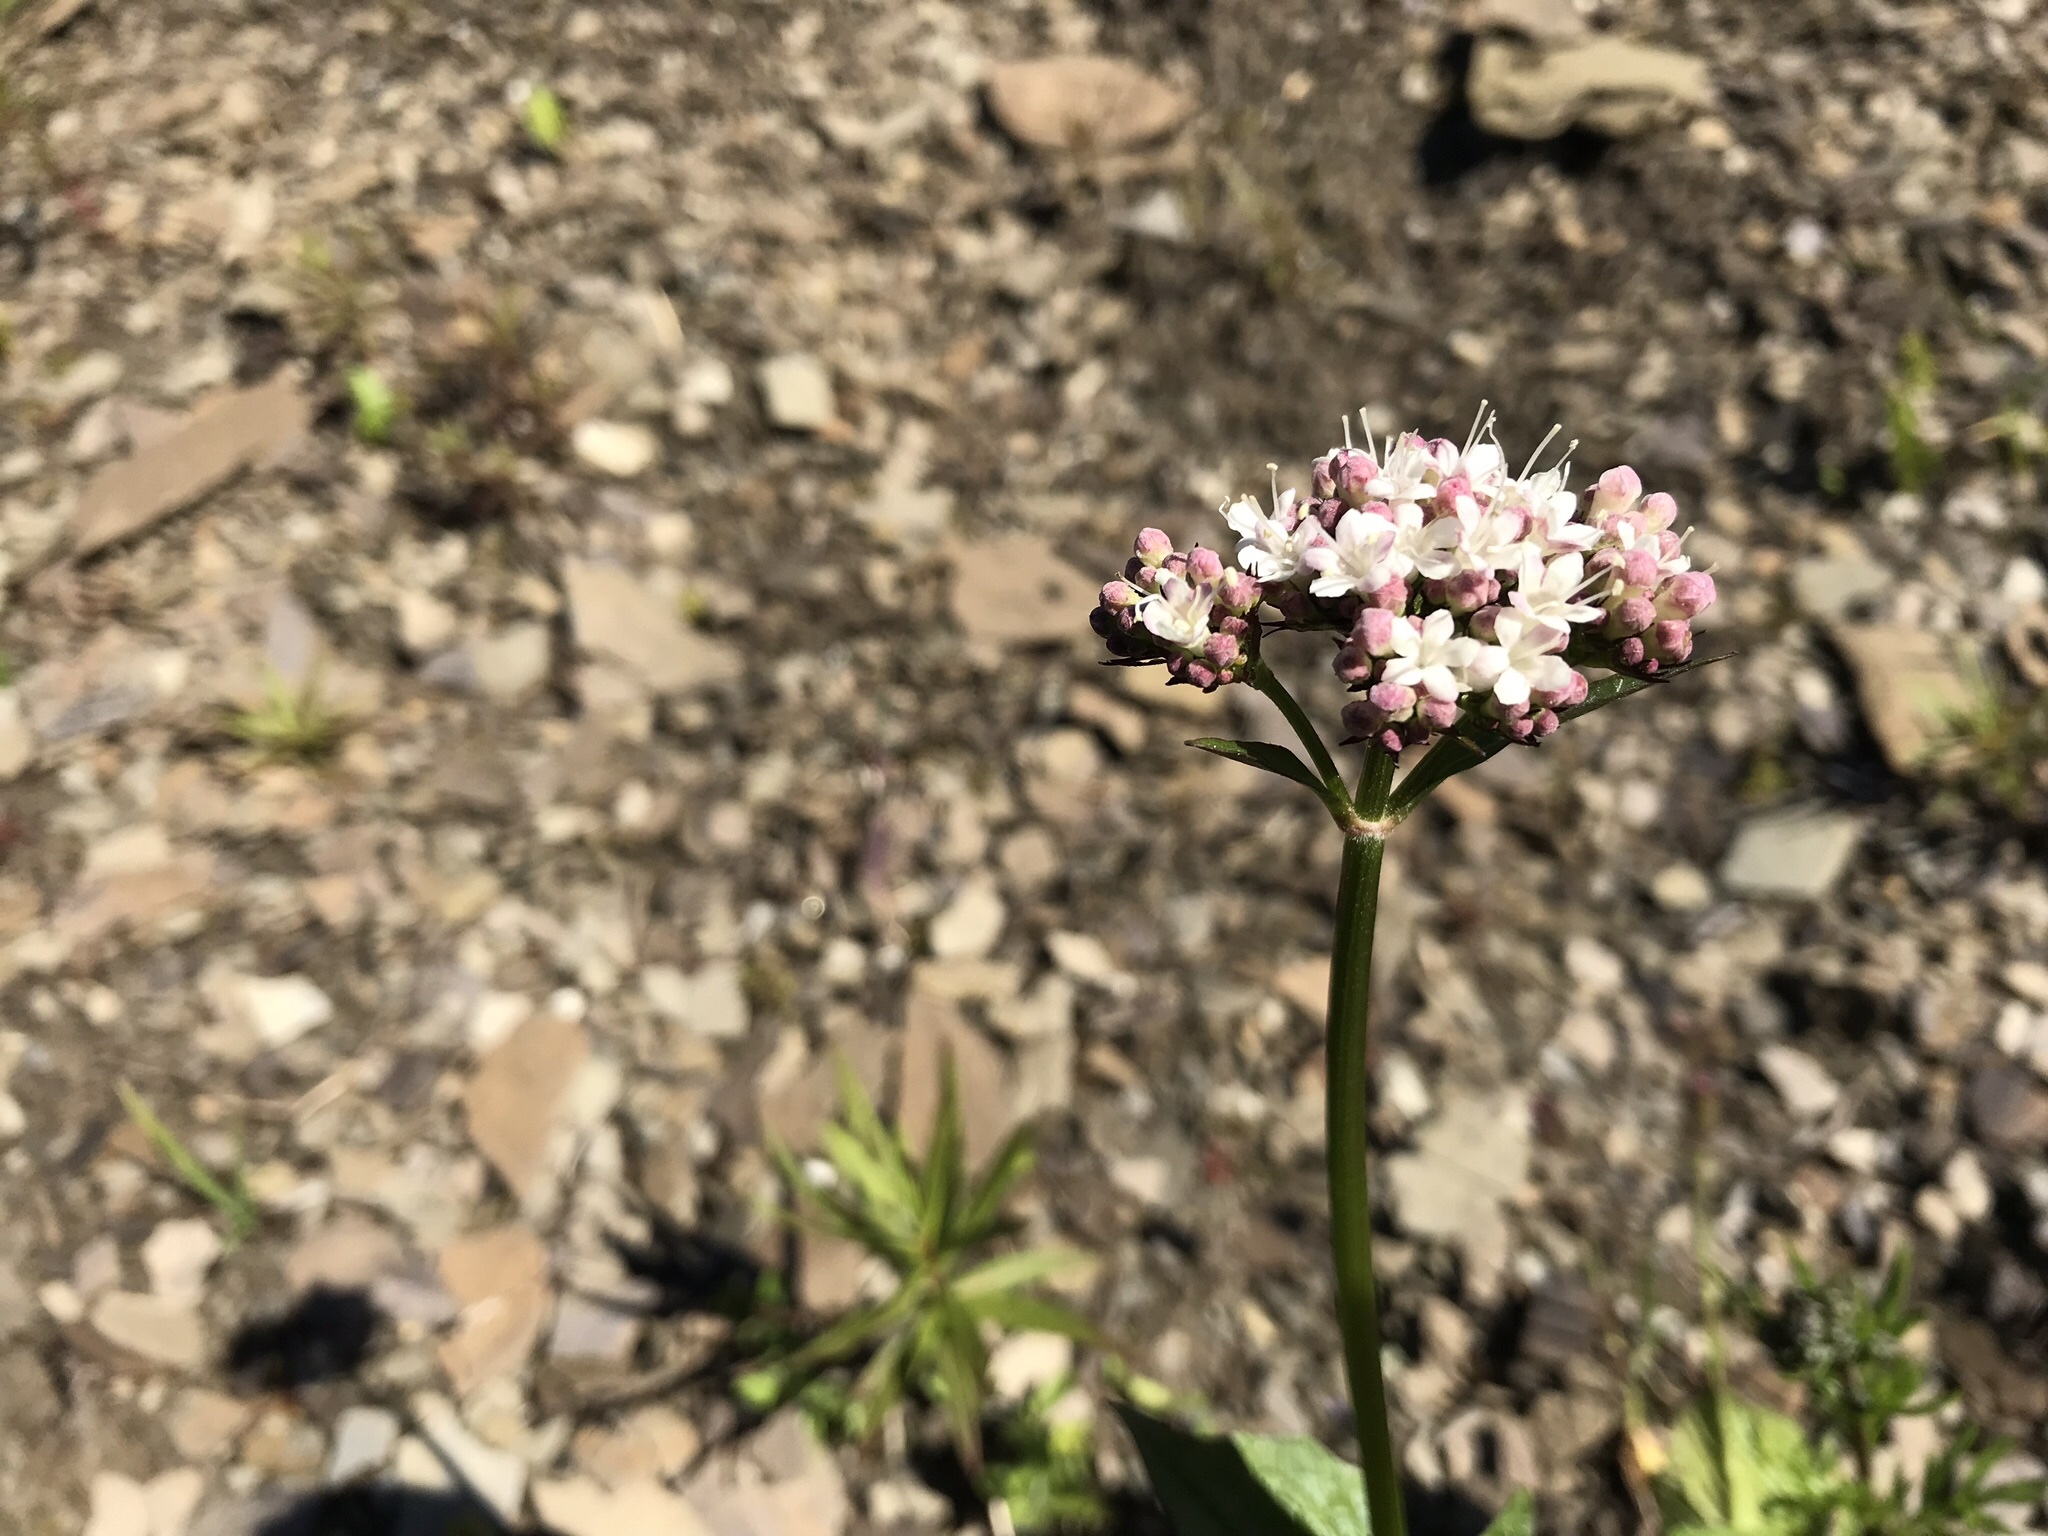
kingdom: Plantae
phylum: Tracheophyta
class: Magnoliopsida
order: Dipsacales
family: Caprifoliaceae
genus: Valeriana
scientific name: Valeriana sitchensis
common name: Pacific valerian
